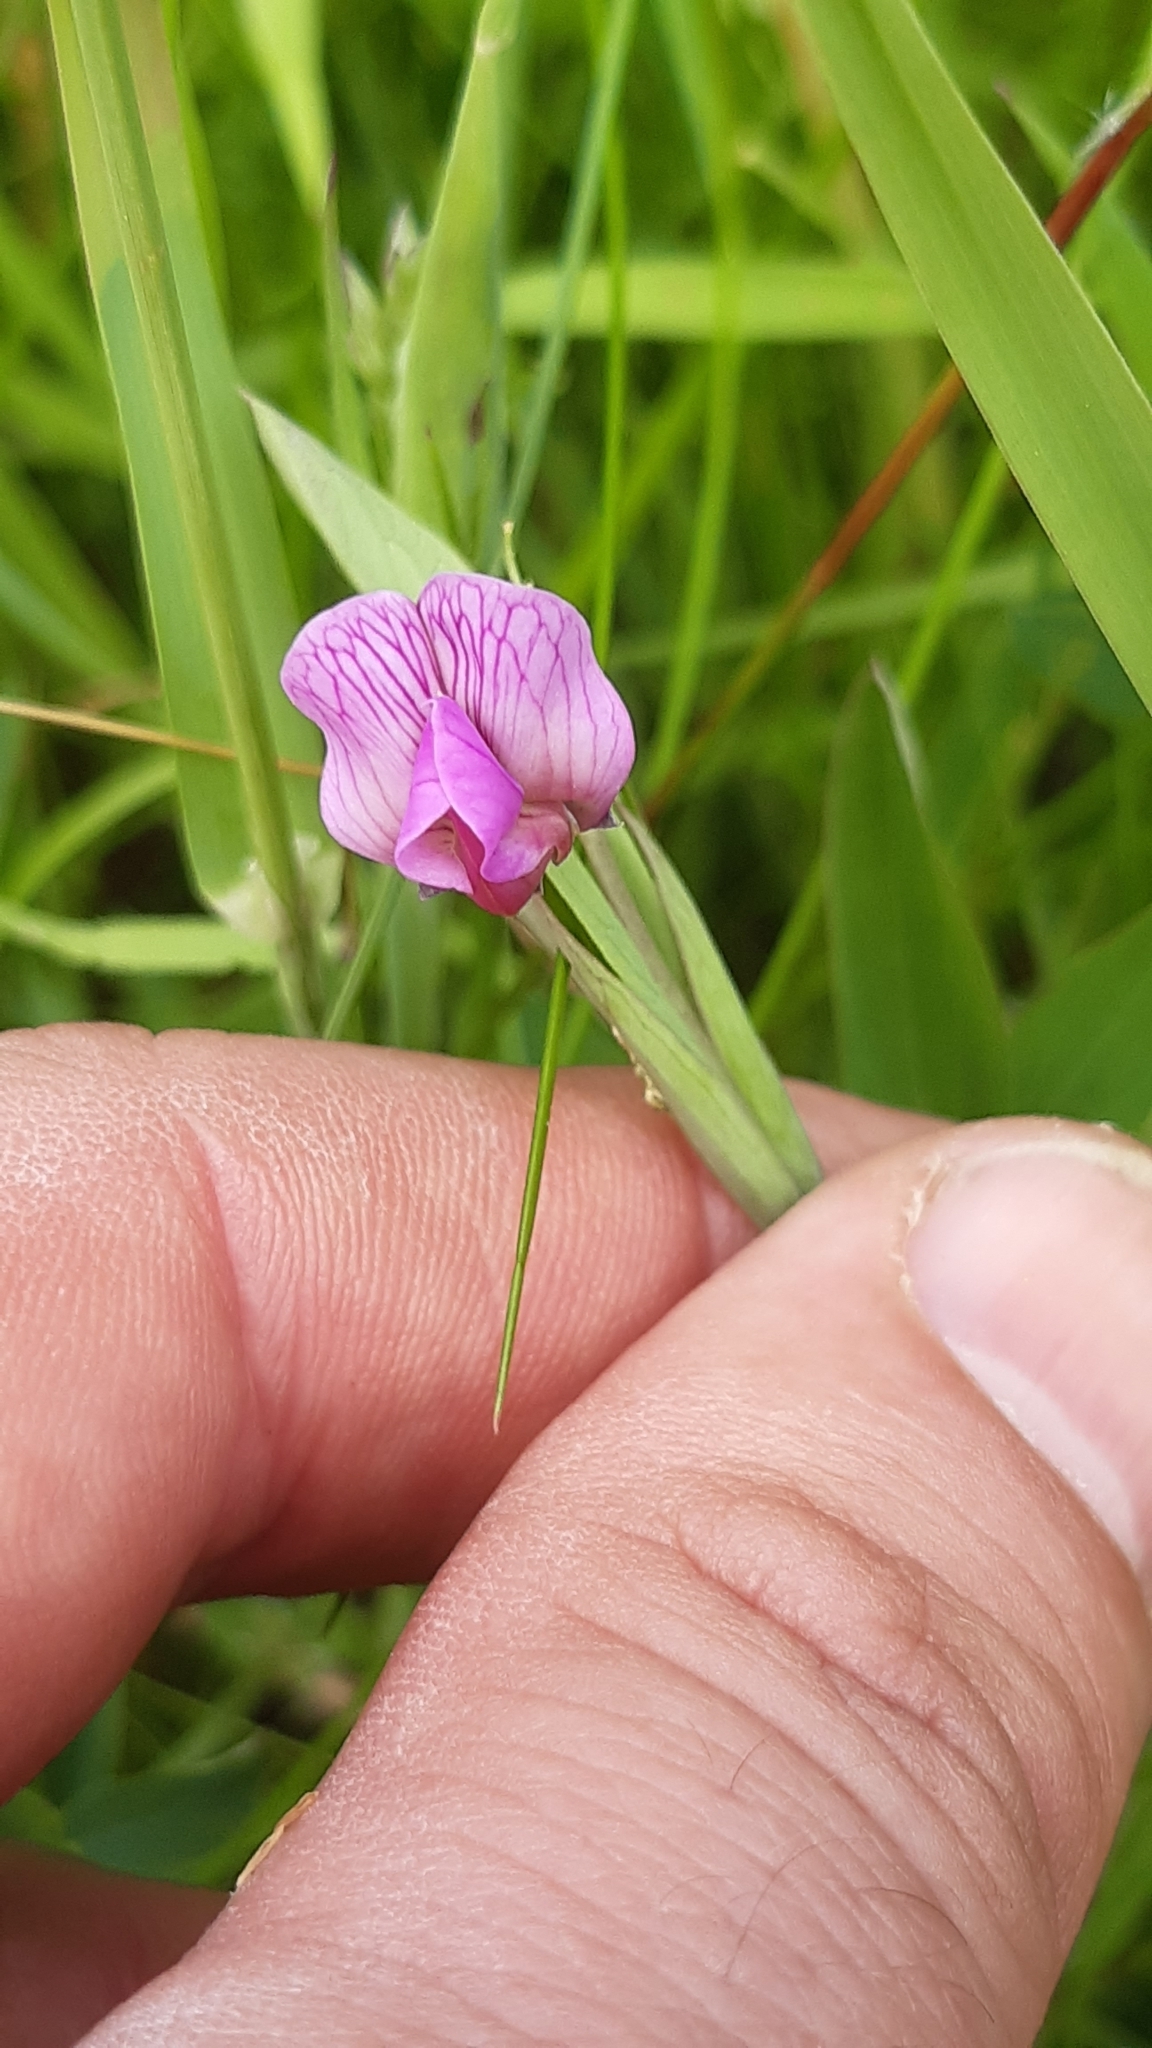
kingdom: Plantae
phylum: Tracheophyta
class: Magnoliopsida
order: Fabales
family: Fabaceae
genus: Lathyrus
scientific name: Lathyrus linifolius
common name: Bitter-vetch
